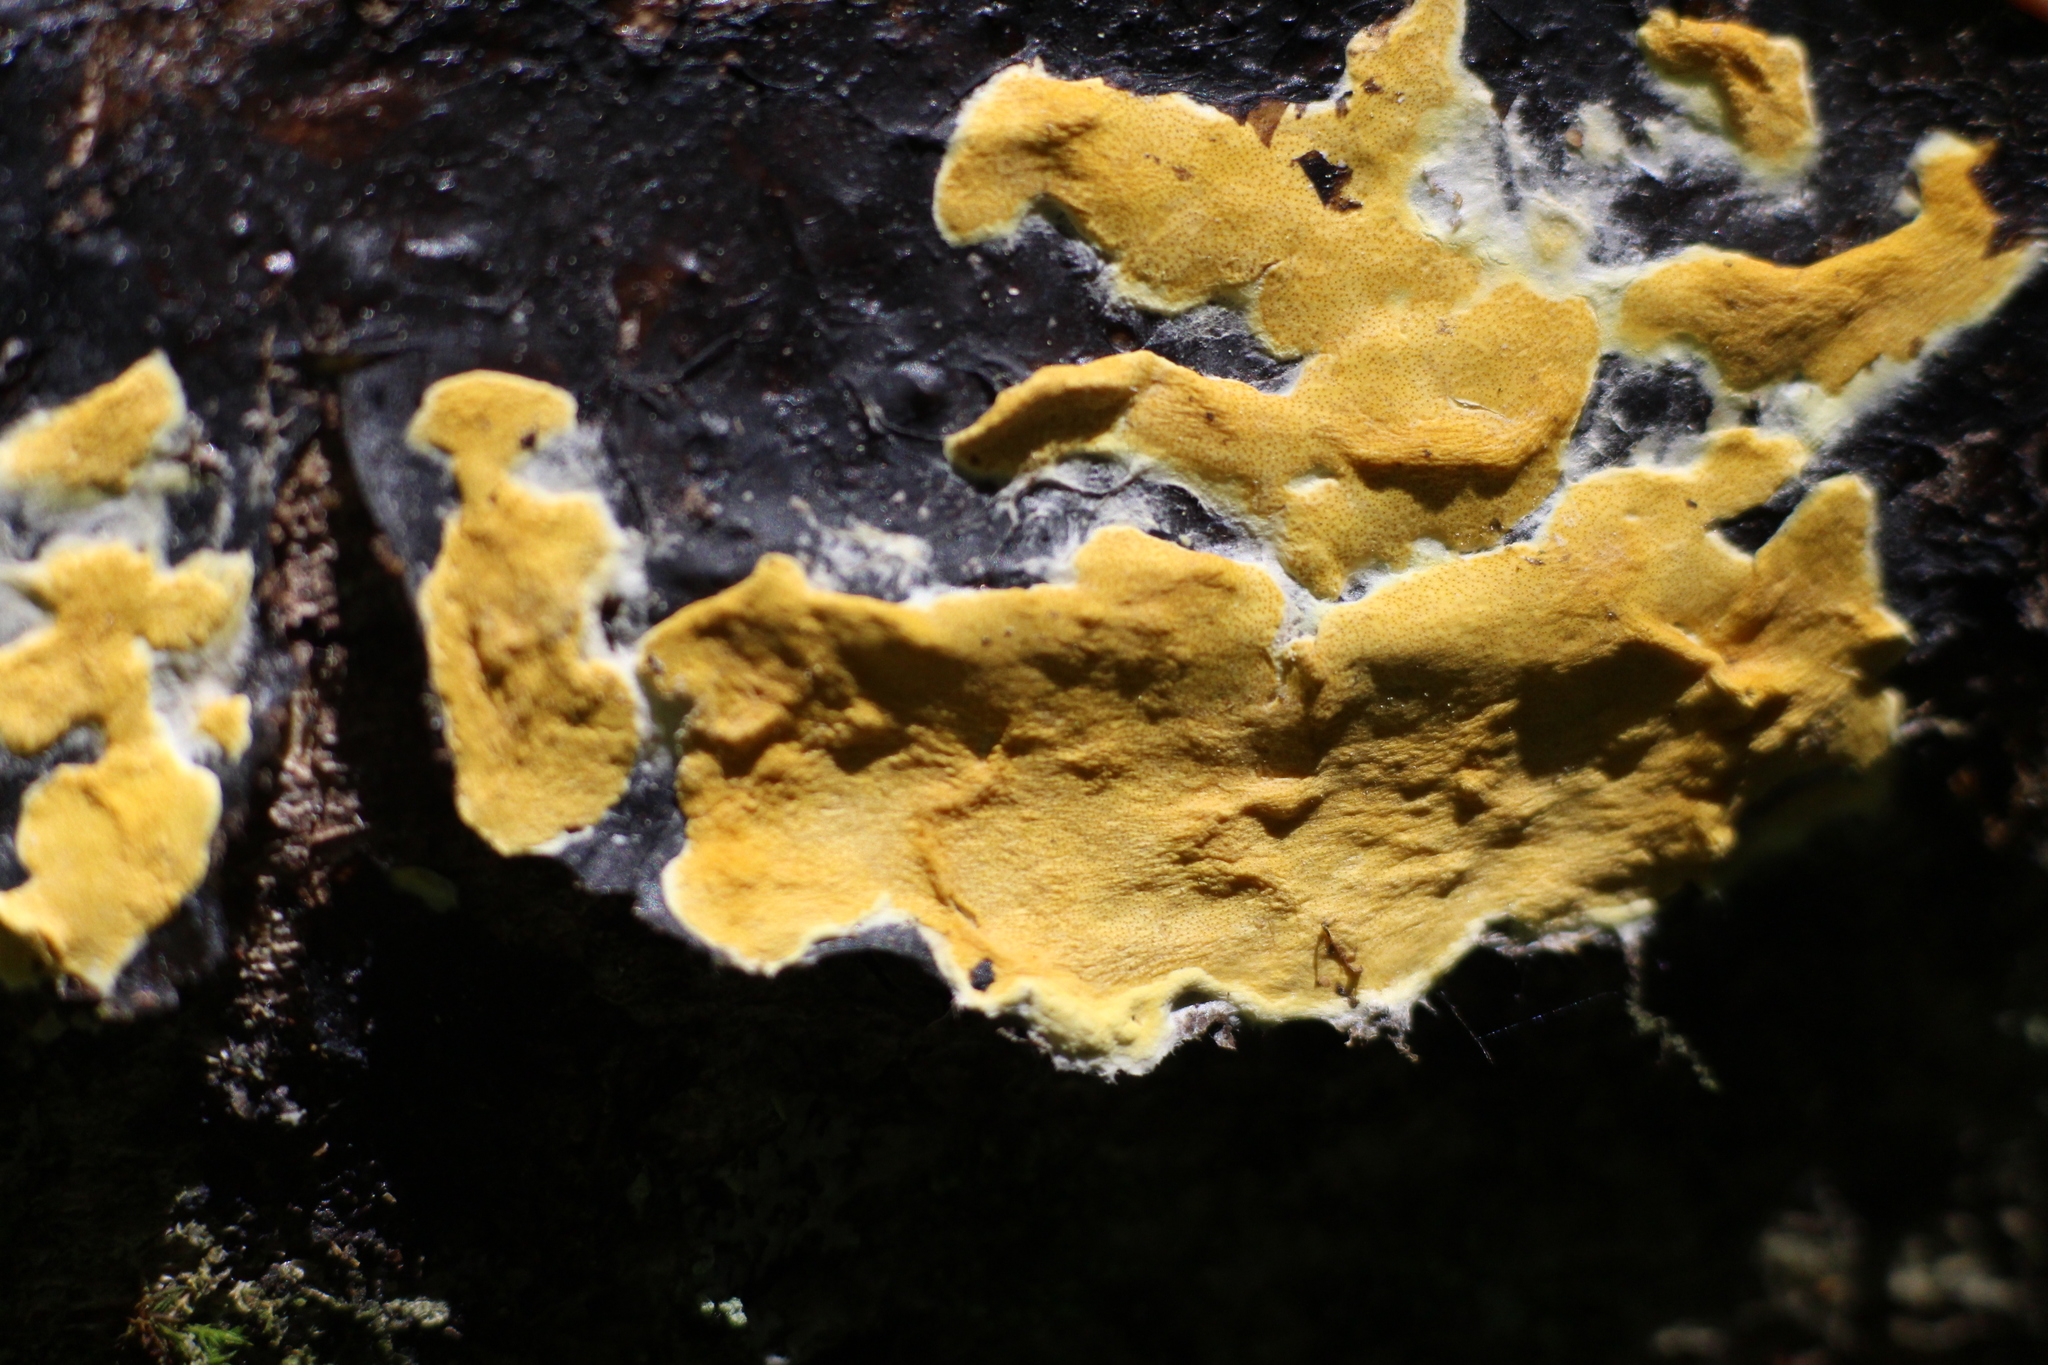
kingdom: Fungi
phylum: Ascomycota
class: Sordariomycetes
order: Hypocreales
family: Hypocreaceae
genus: Trichoderma
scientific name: Trichoderma sulphureum
